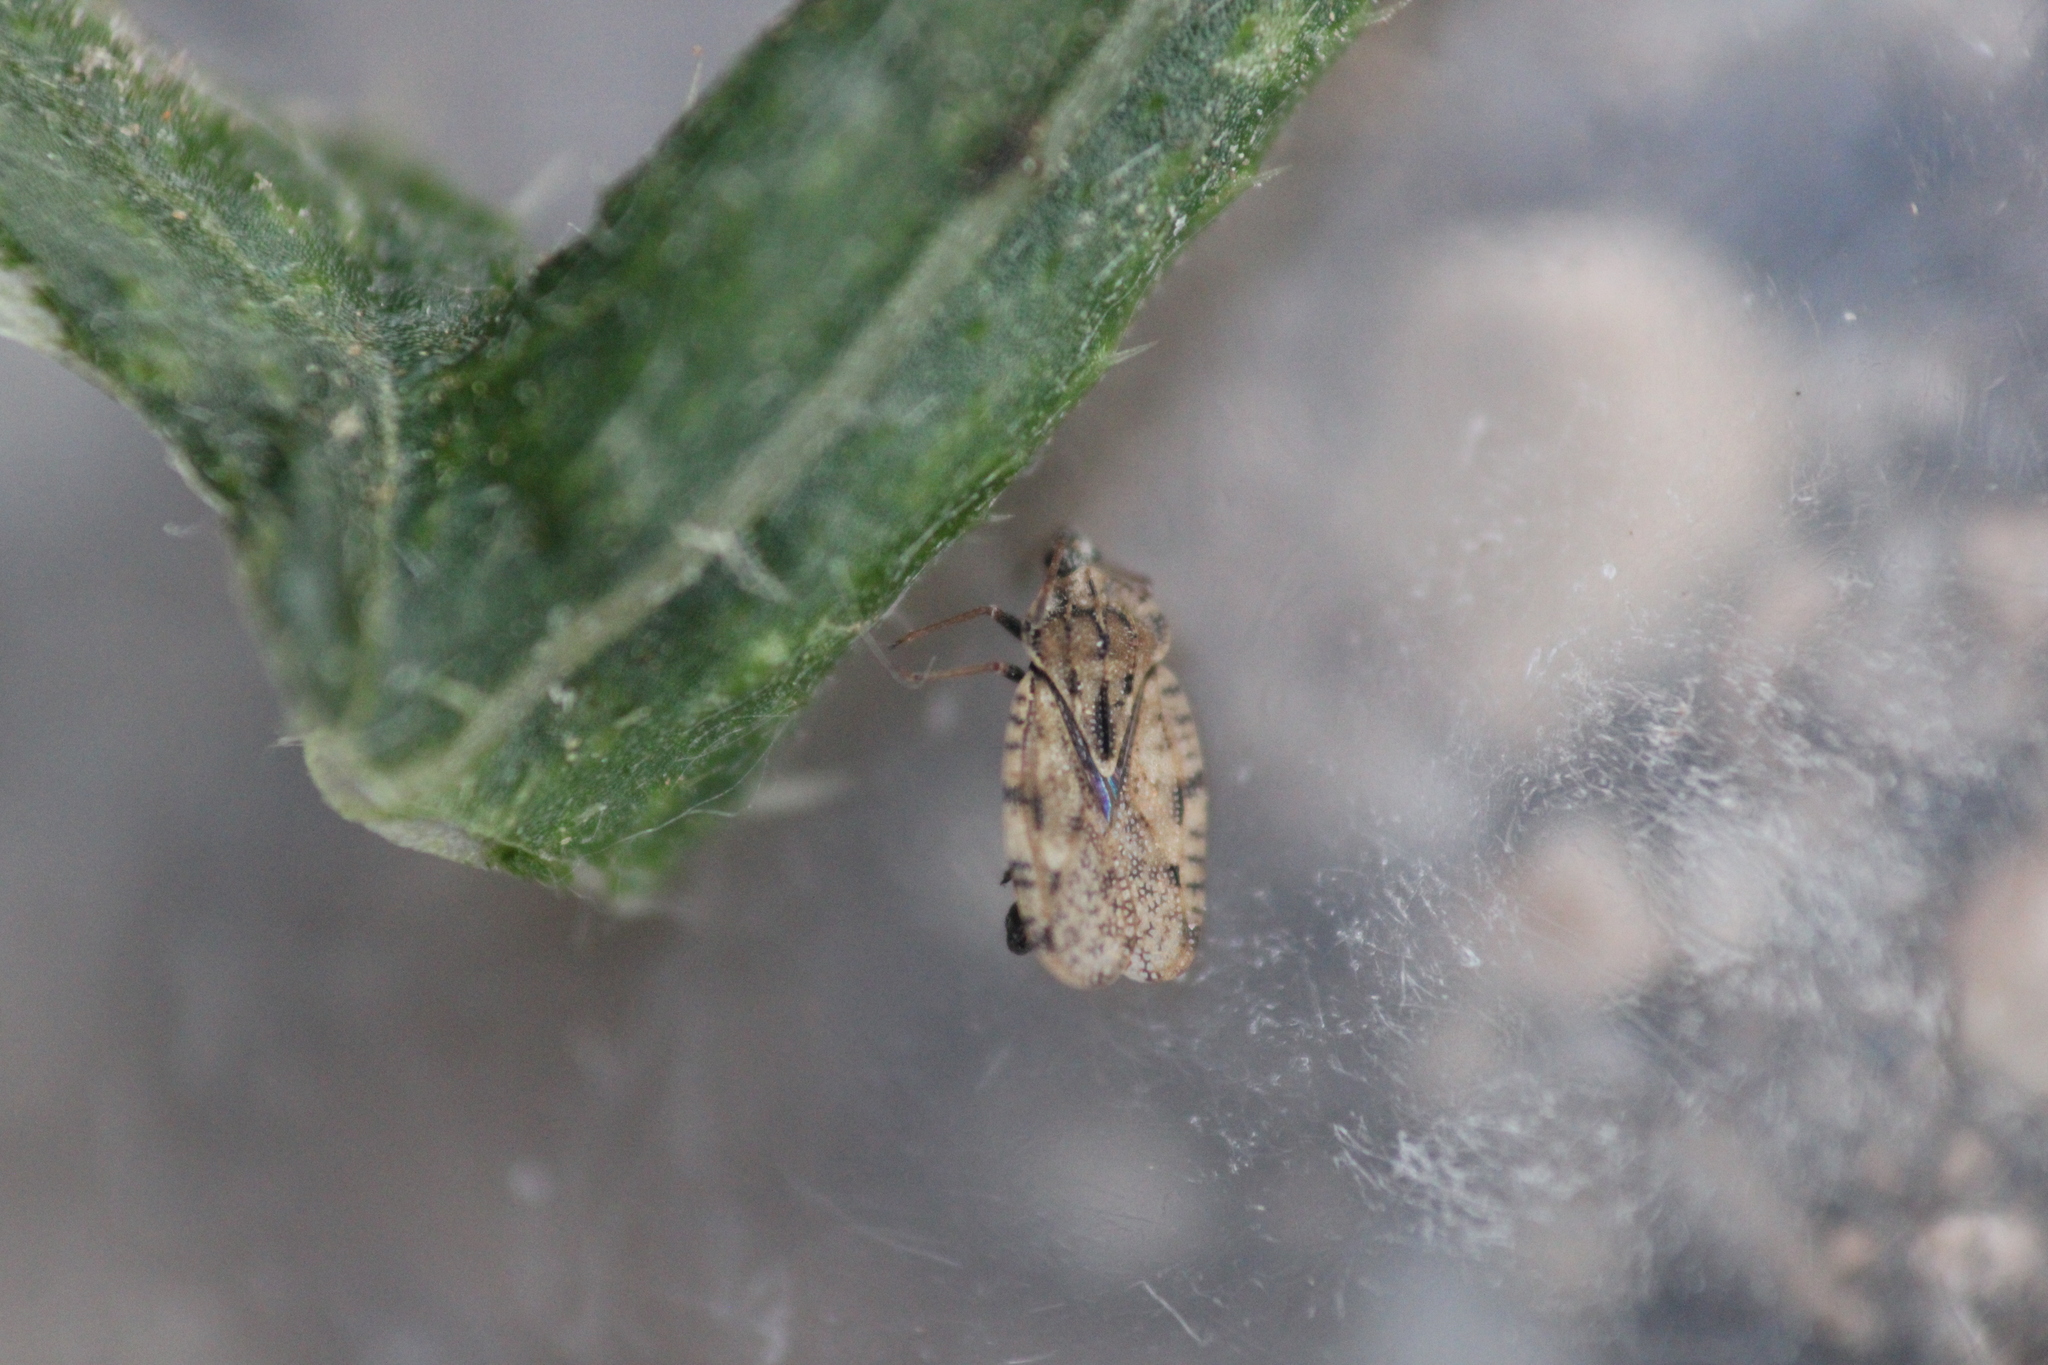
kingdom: Animalia
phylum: Arthropoda
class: Insecta
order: Hemiptera
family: Tingidae
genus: Tingis
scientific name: Tingis cardui
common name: Spear thistle lacebug
